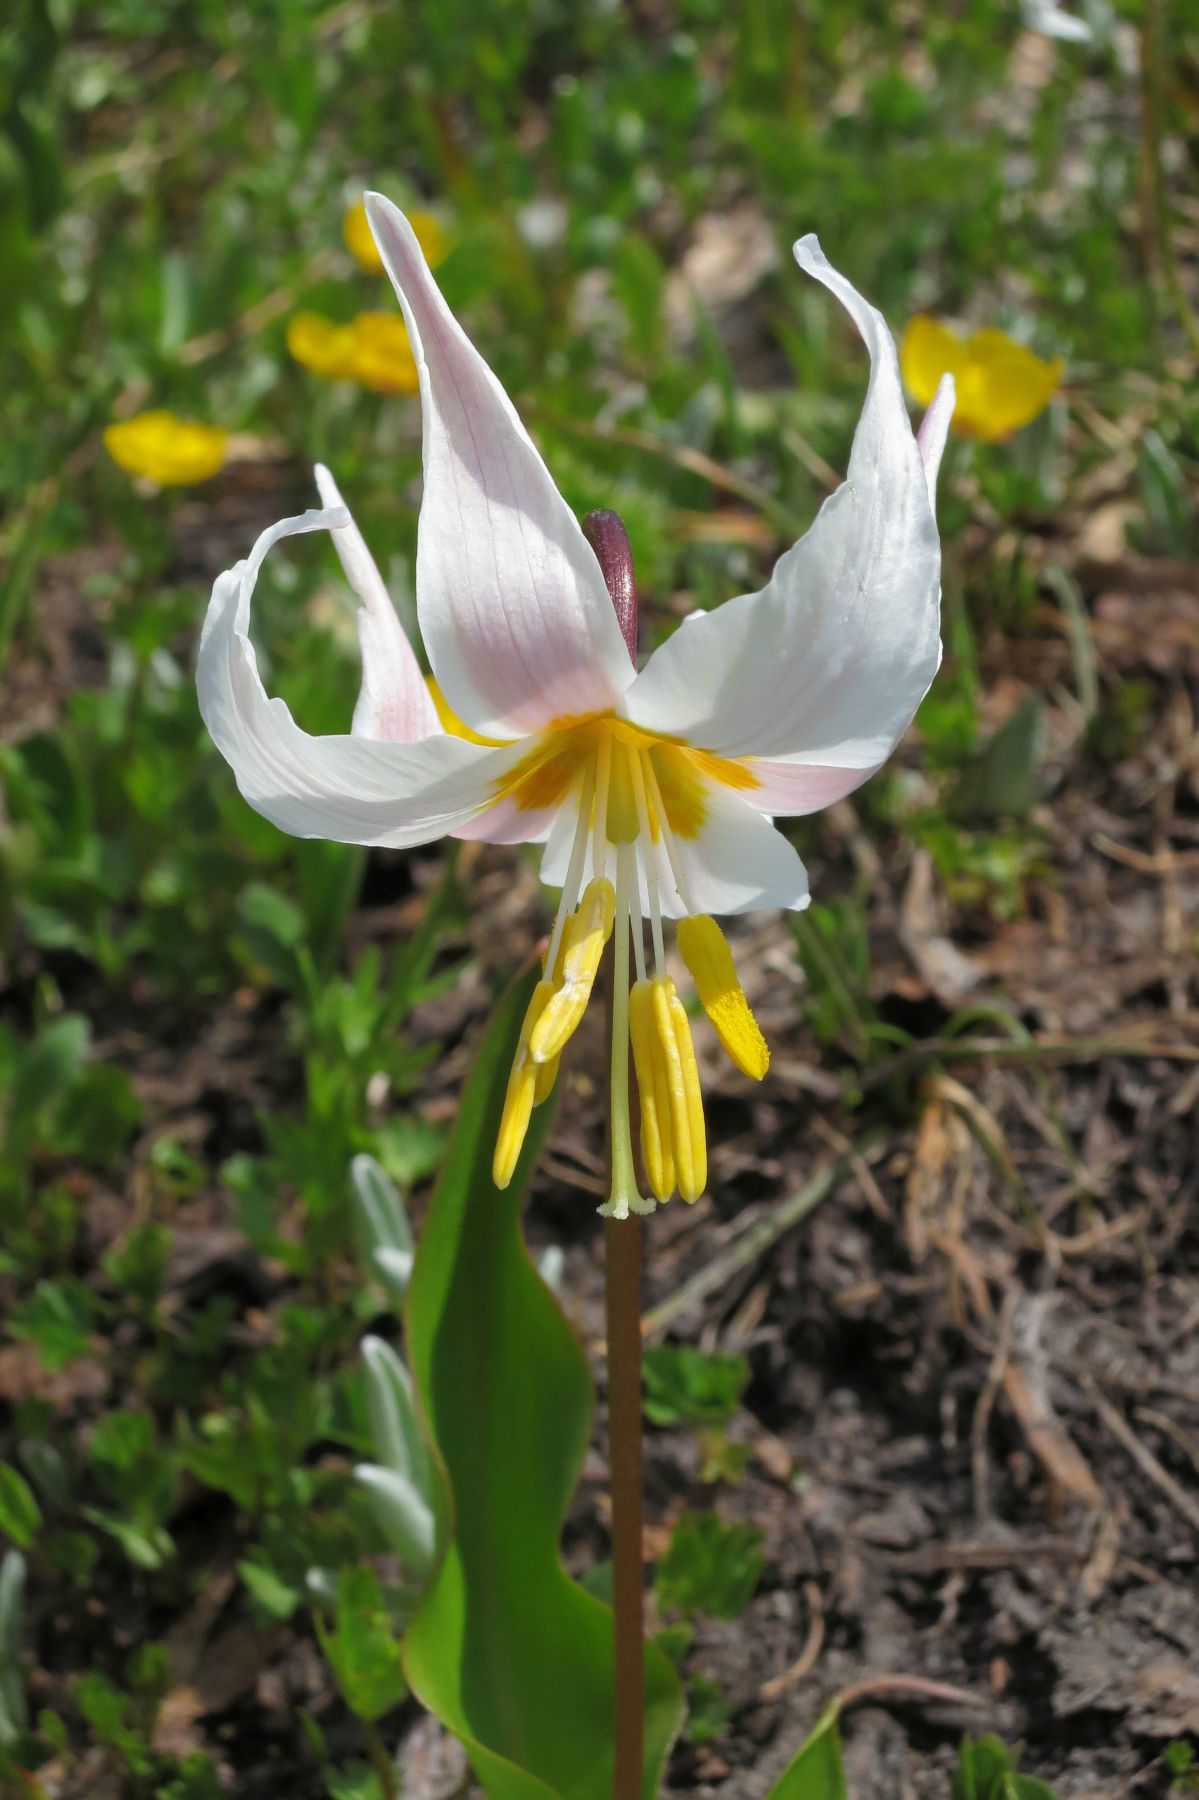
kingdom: Plantae
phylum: Tracheophyta
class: Liliopsida
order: Liliales
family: Liliaceae
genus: Erythronium
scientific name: Erythronium montanum
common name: Avalanche lily
